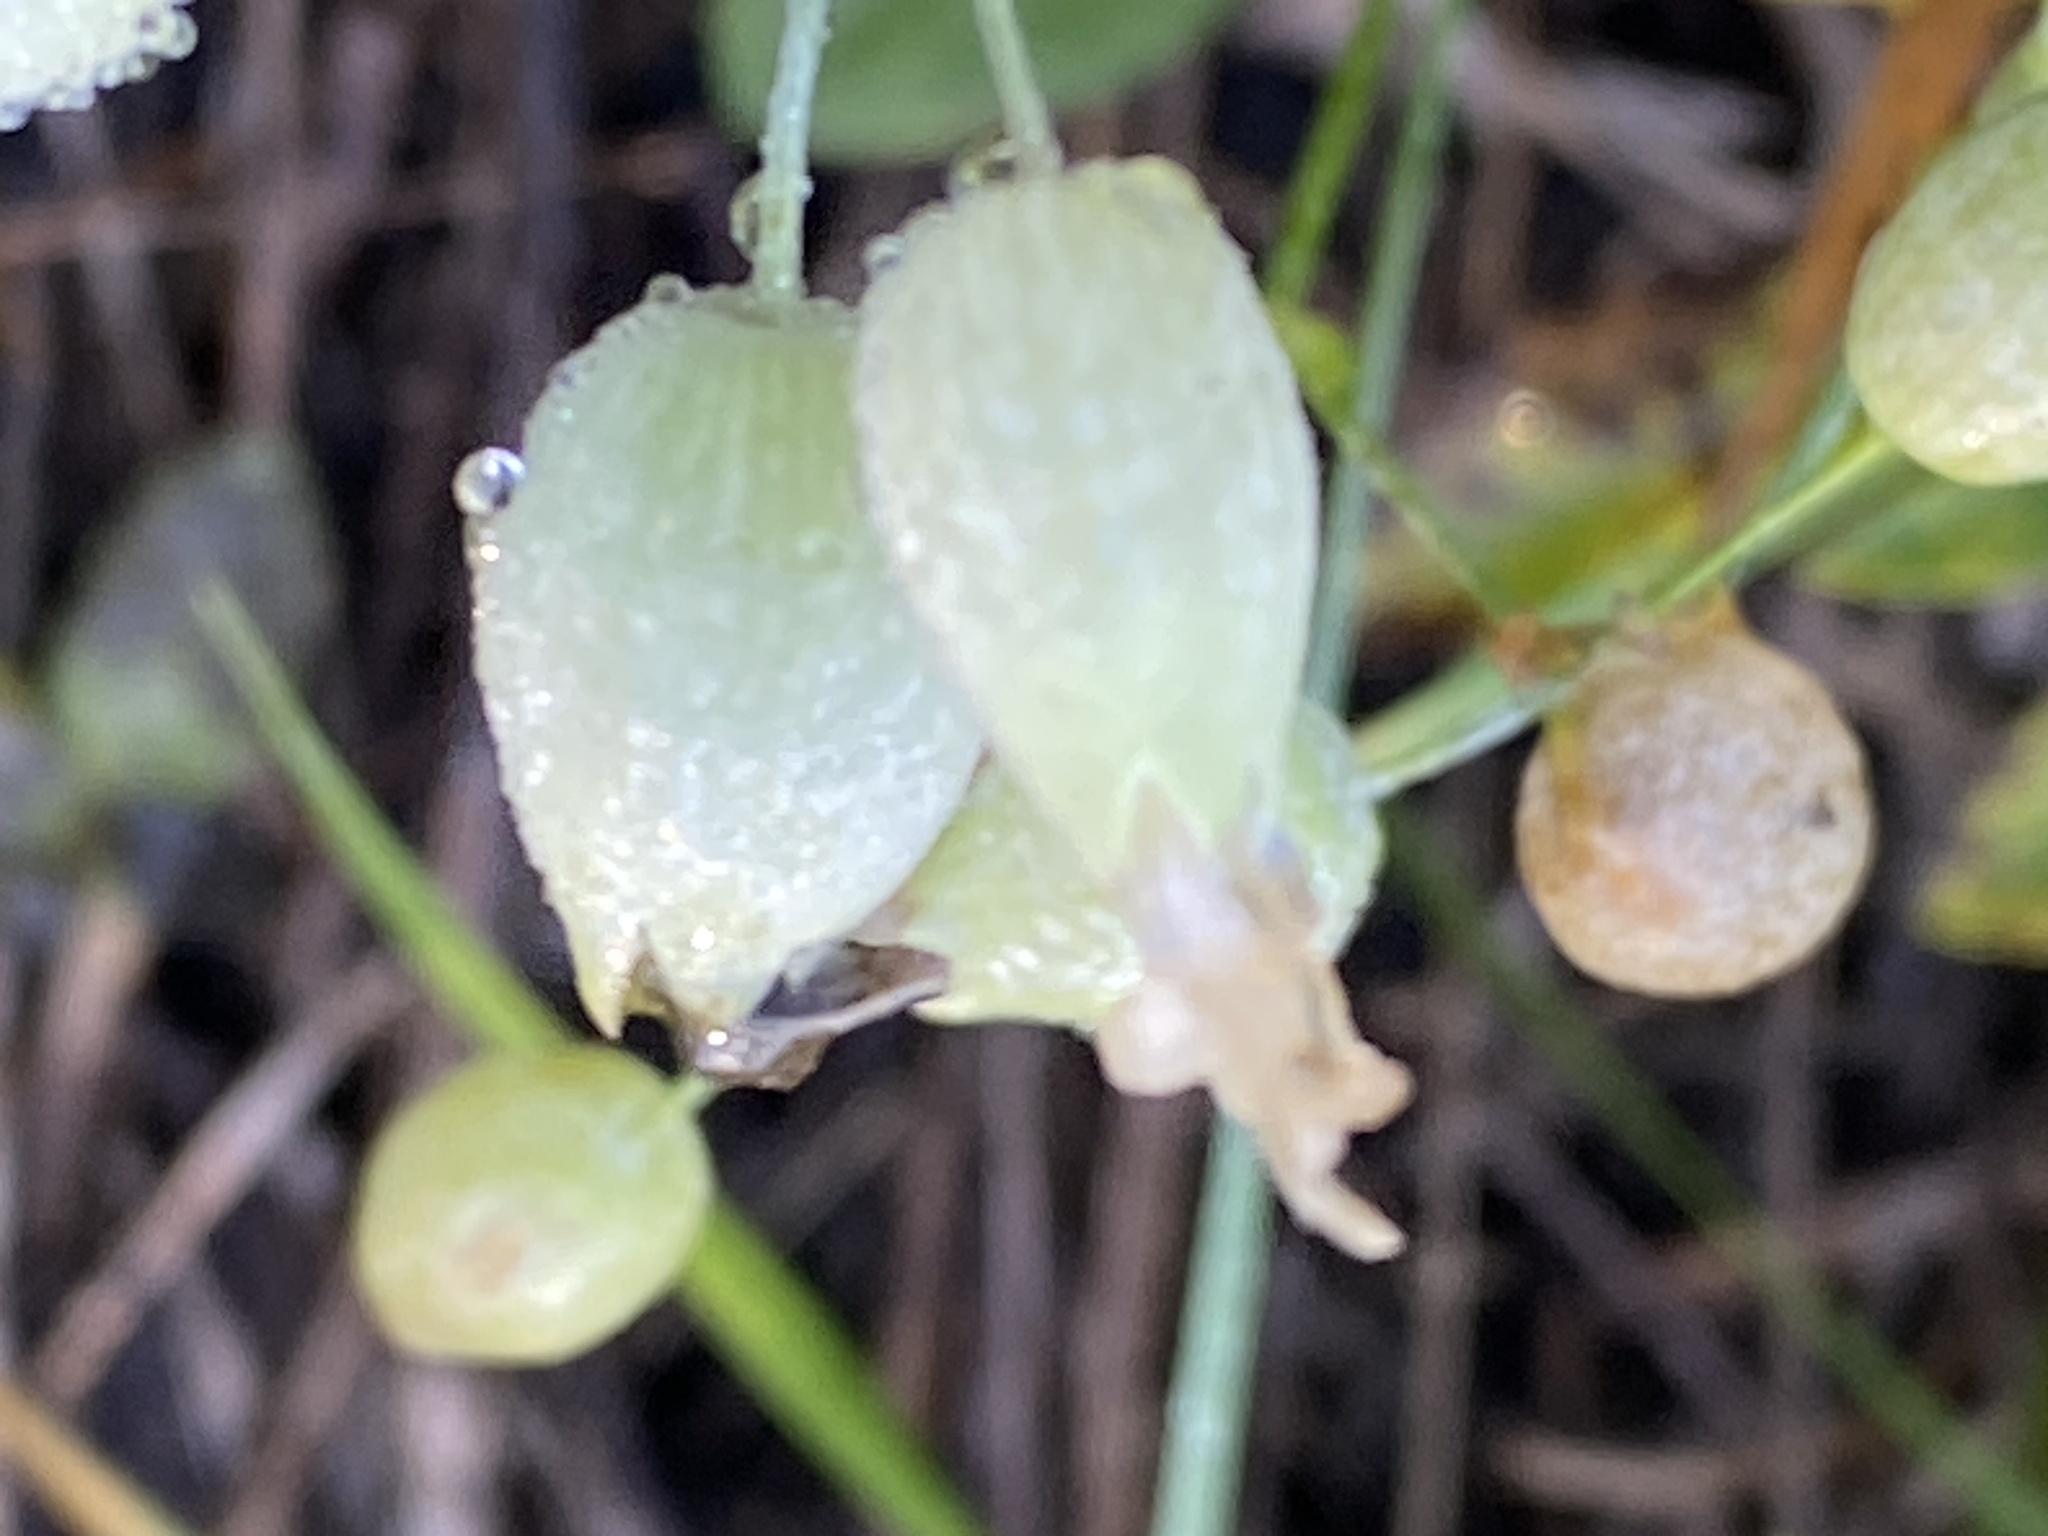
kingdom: Plantae
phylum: Tracheophyta
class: Magnoliopsida
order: Caryophyllales
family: Caryophyllaceae
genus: Silene
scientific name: Silene vulgaris
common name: Bladder campion
